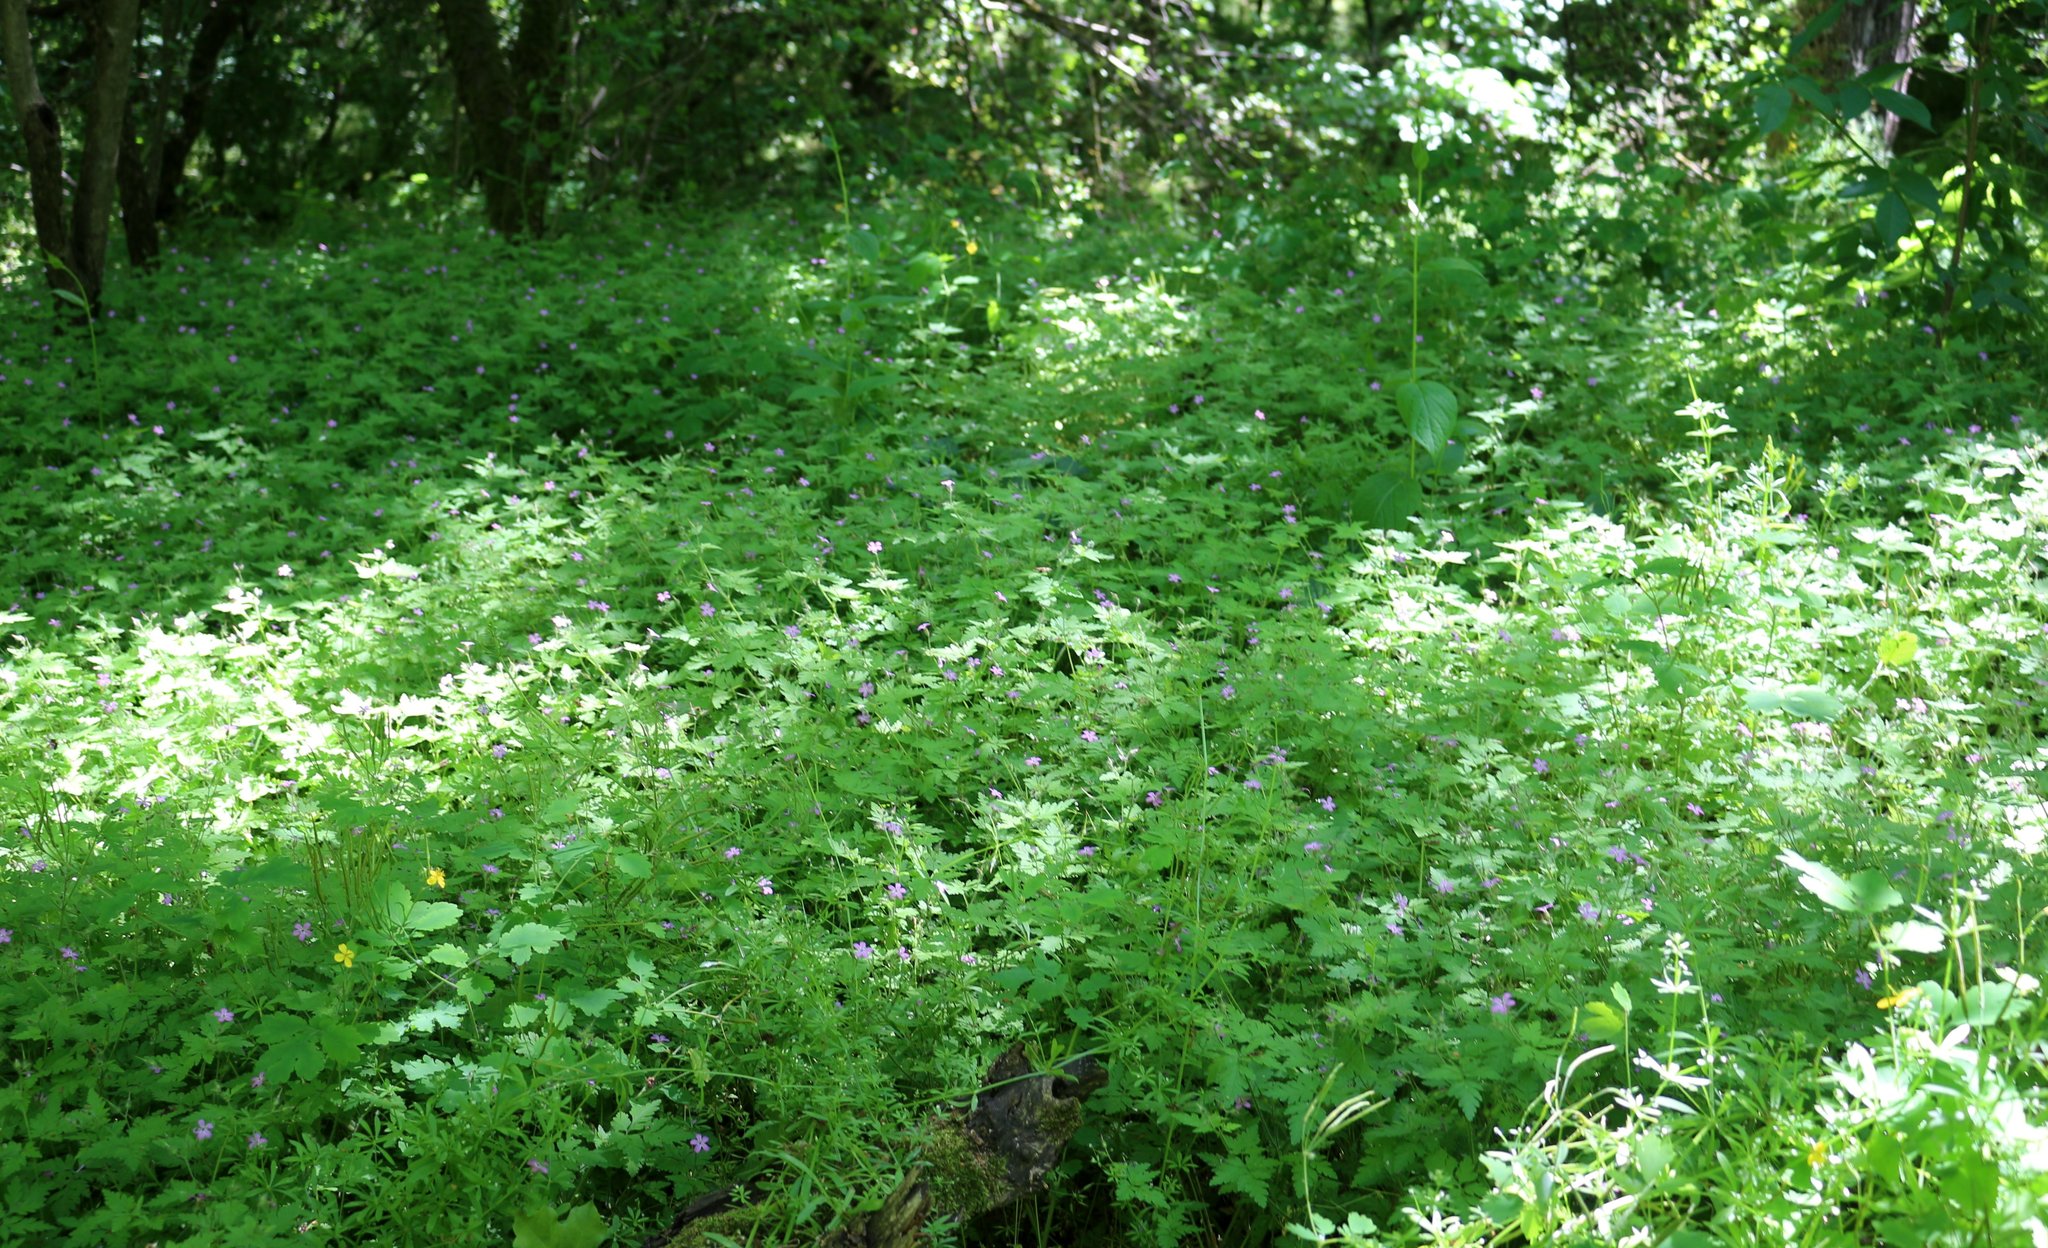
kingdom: Plantae
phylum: Tracheophyta
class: Magnoliopsida
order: Geraniales
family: Geraniaceae
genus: Geranium
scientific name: Geranium robertianum
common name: Herb-robert
